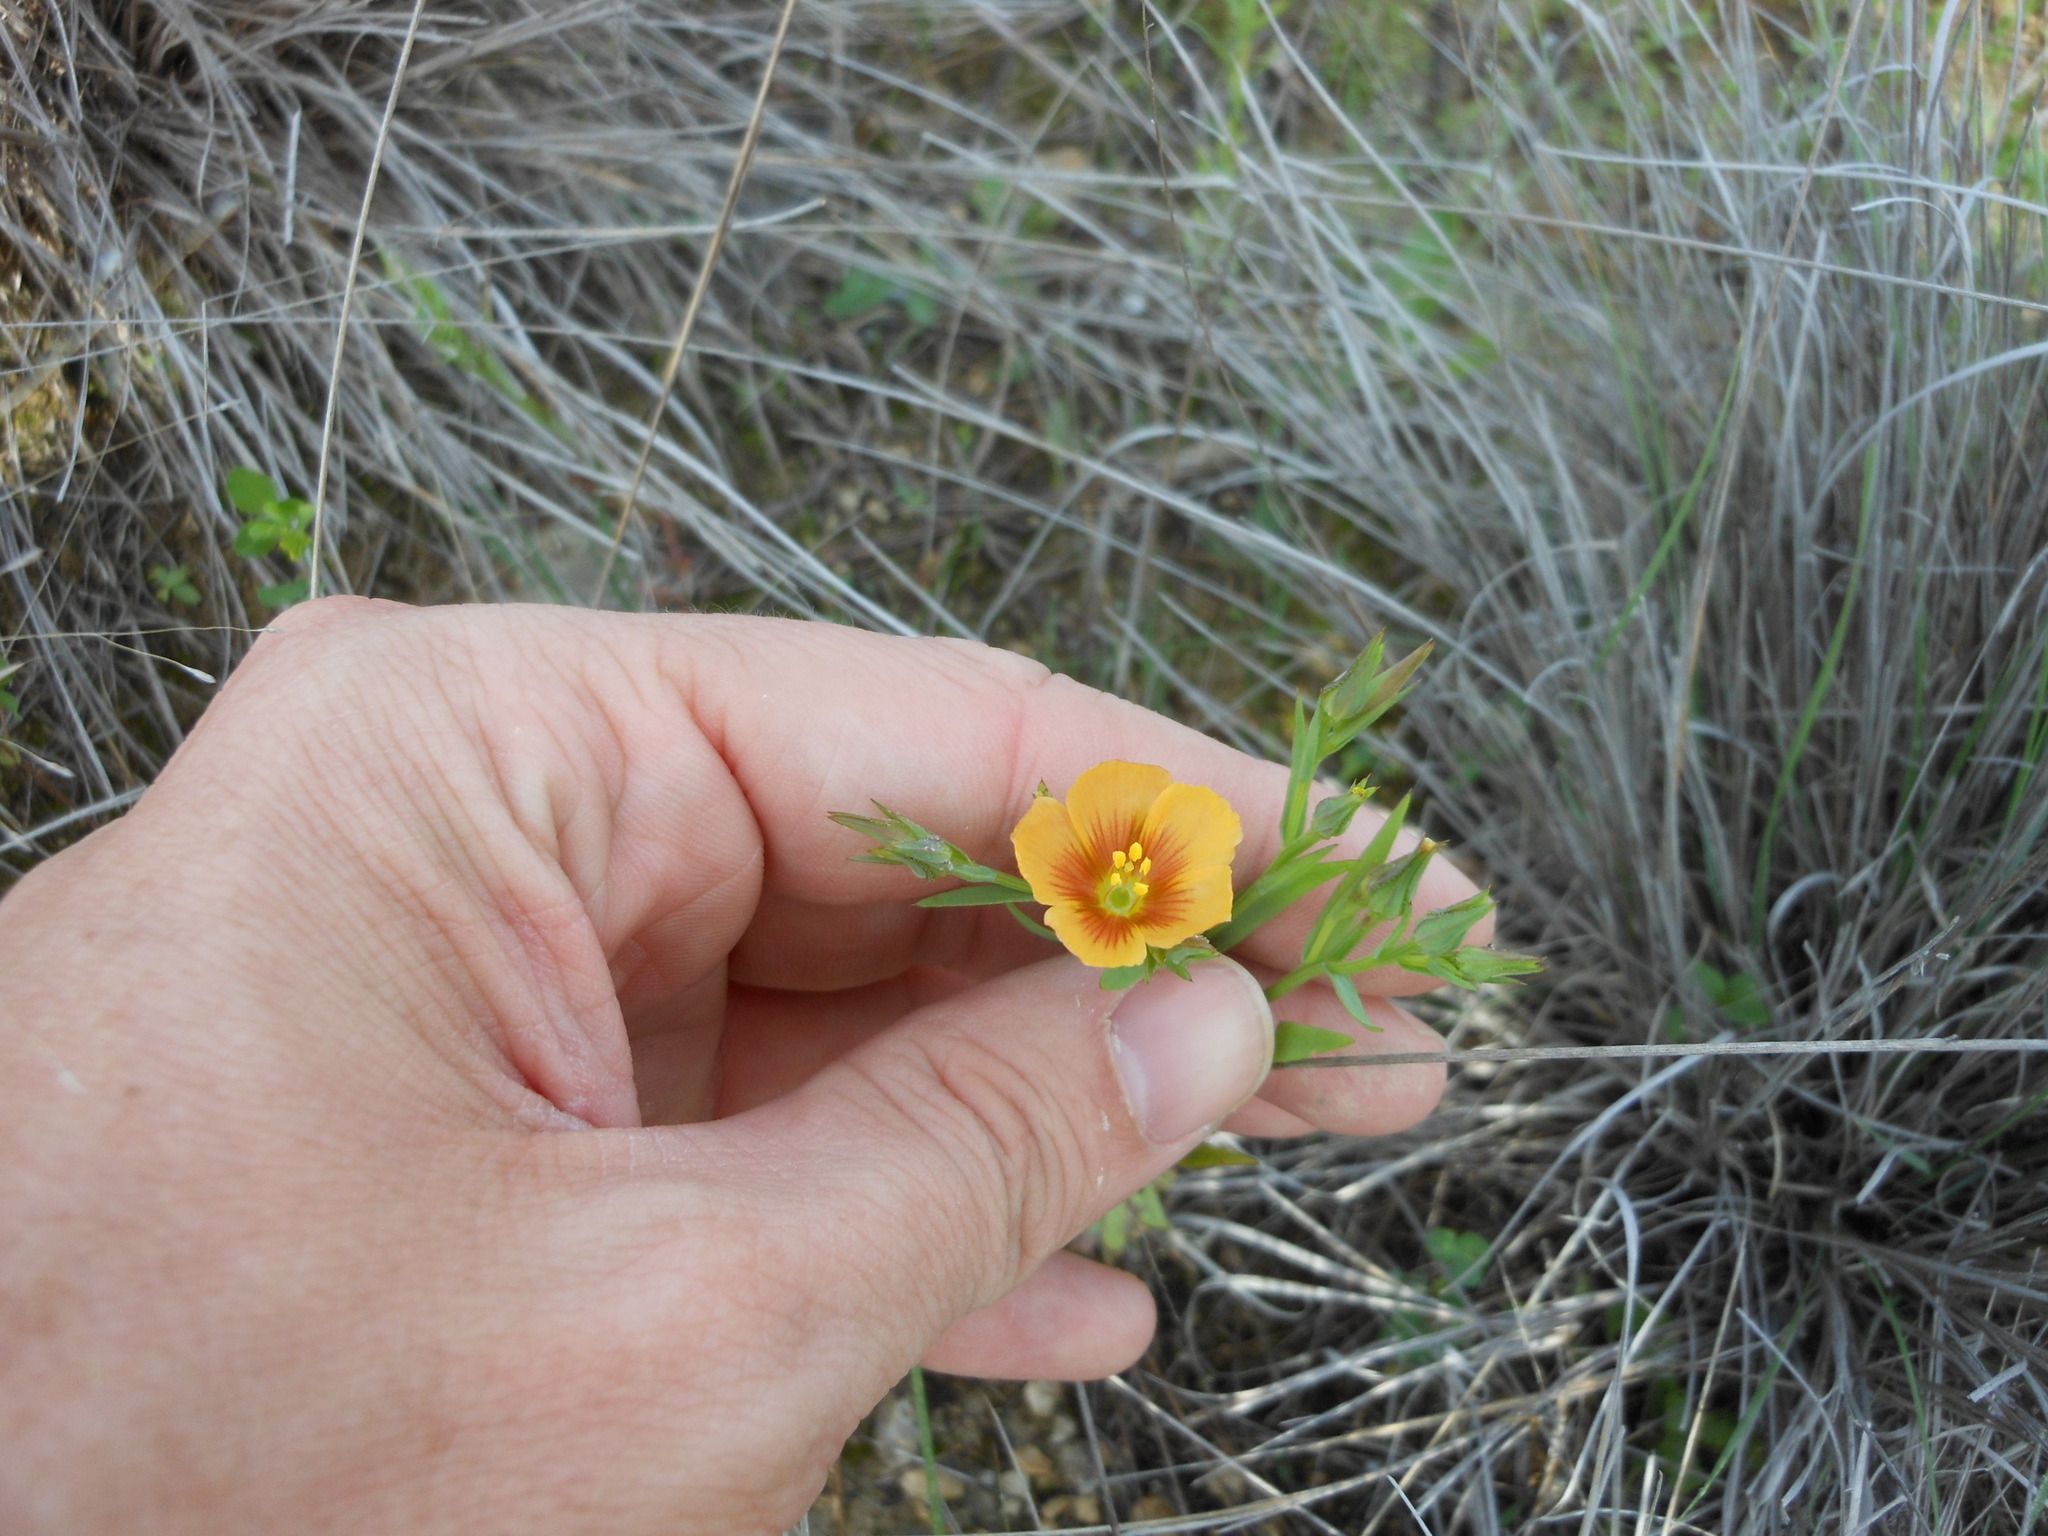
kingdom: Plantae
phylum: Tracheophyta
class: Magnoliopsida
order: Malpighiales
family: Linaceae
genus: Linum
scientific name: Linum berlandieri
